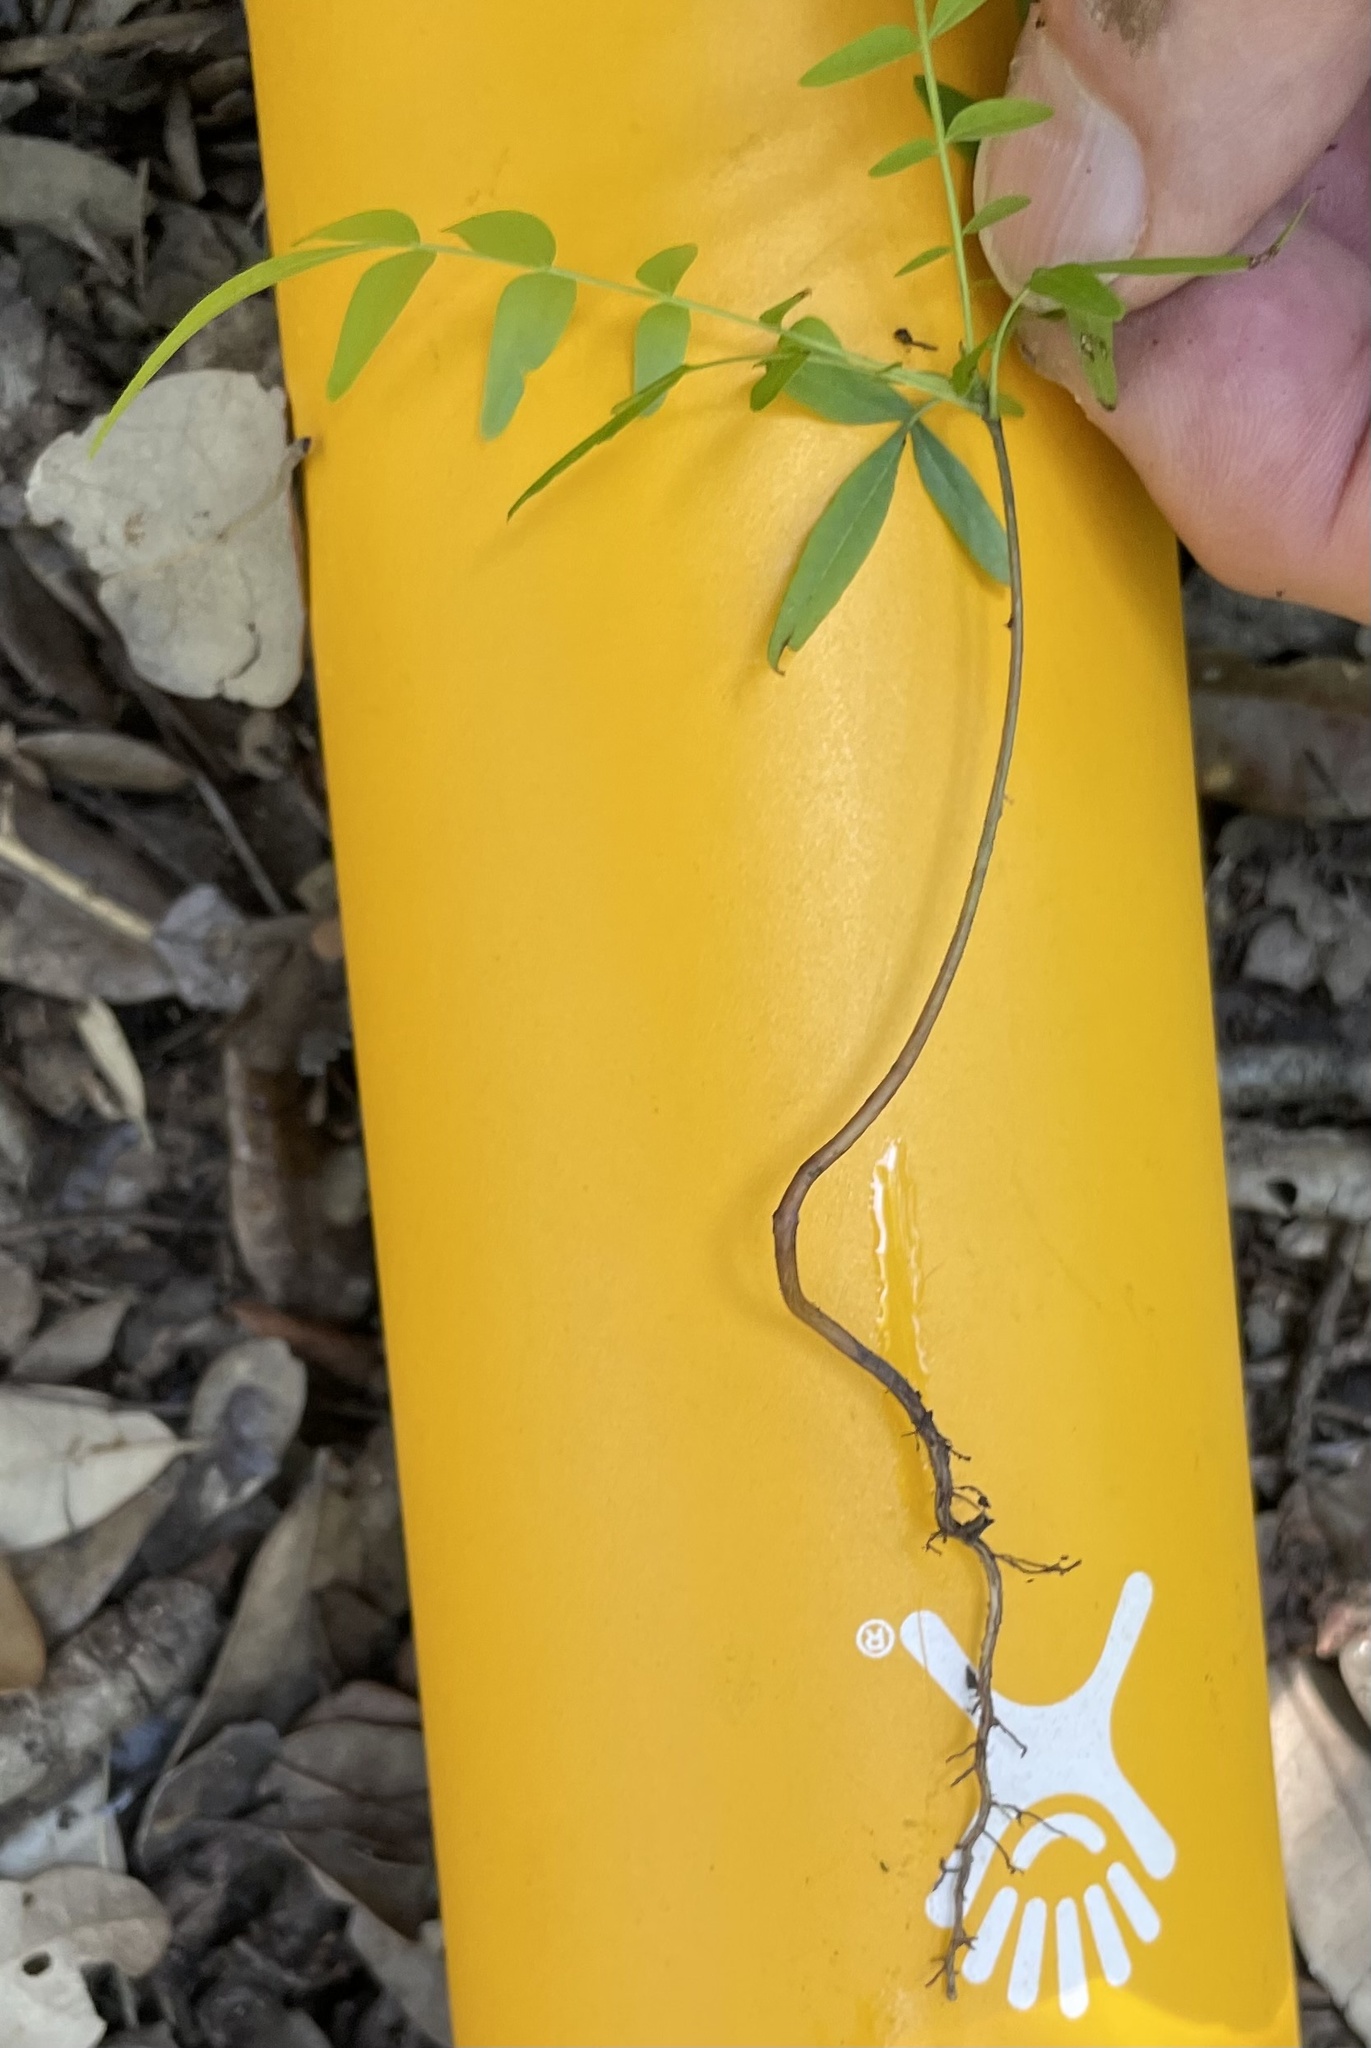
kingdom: Plantae
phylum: Tracheophyta
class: Magnoliopsida
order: Sapindales
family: Anacardiaceae
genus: Pistacia
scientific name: Pistacia chinensis
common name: Chinese pistache
